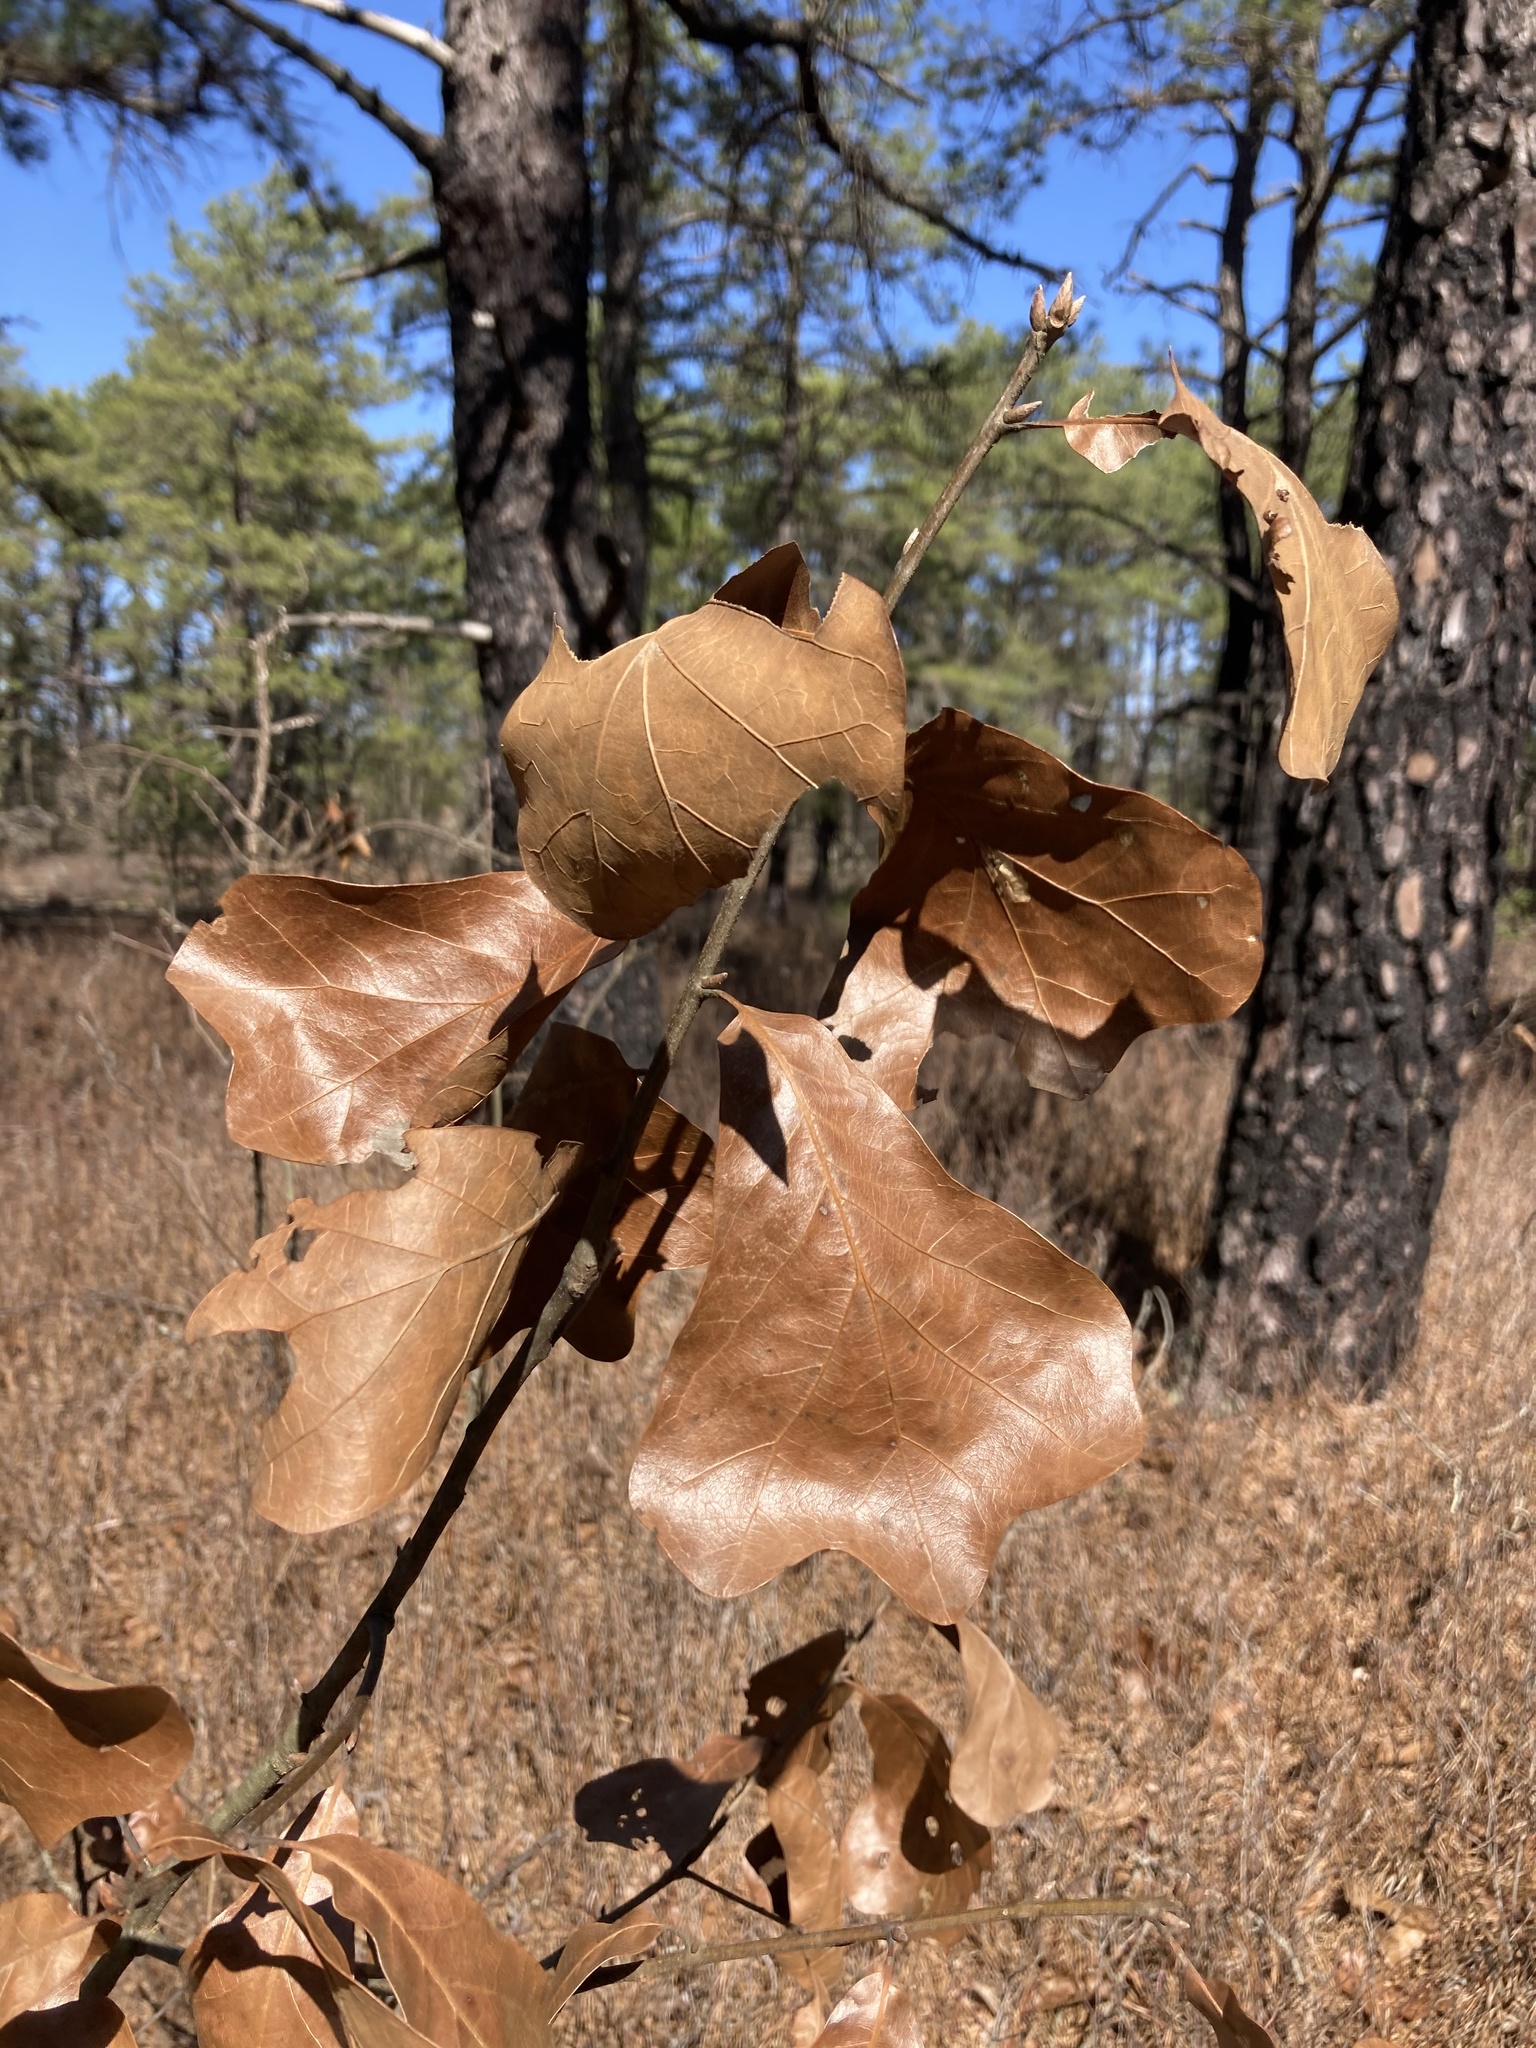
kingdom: Plantae
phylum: Tracheophyta
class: Magnoliopsida
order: Fagales
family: Fagaceae
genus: Quercus
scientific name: Quercus marilandica
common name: Blackjack oak
